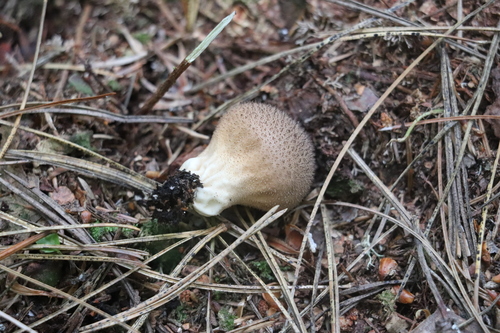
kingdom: Fungi
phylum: Basidiomycota
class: Agaricomycetes
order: Agaricales
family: Lycoperdaceae
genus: Lycoperdon
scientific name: Lycoperdon nigrescens
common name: Blackish puffball
